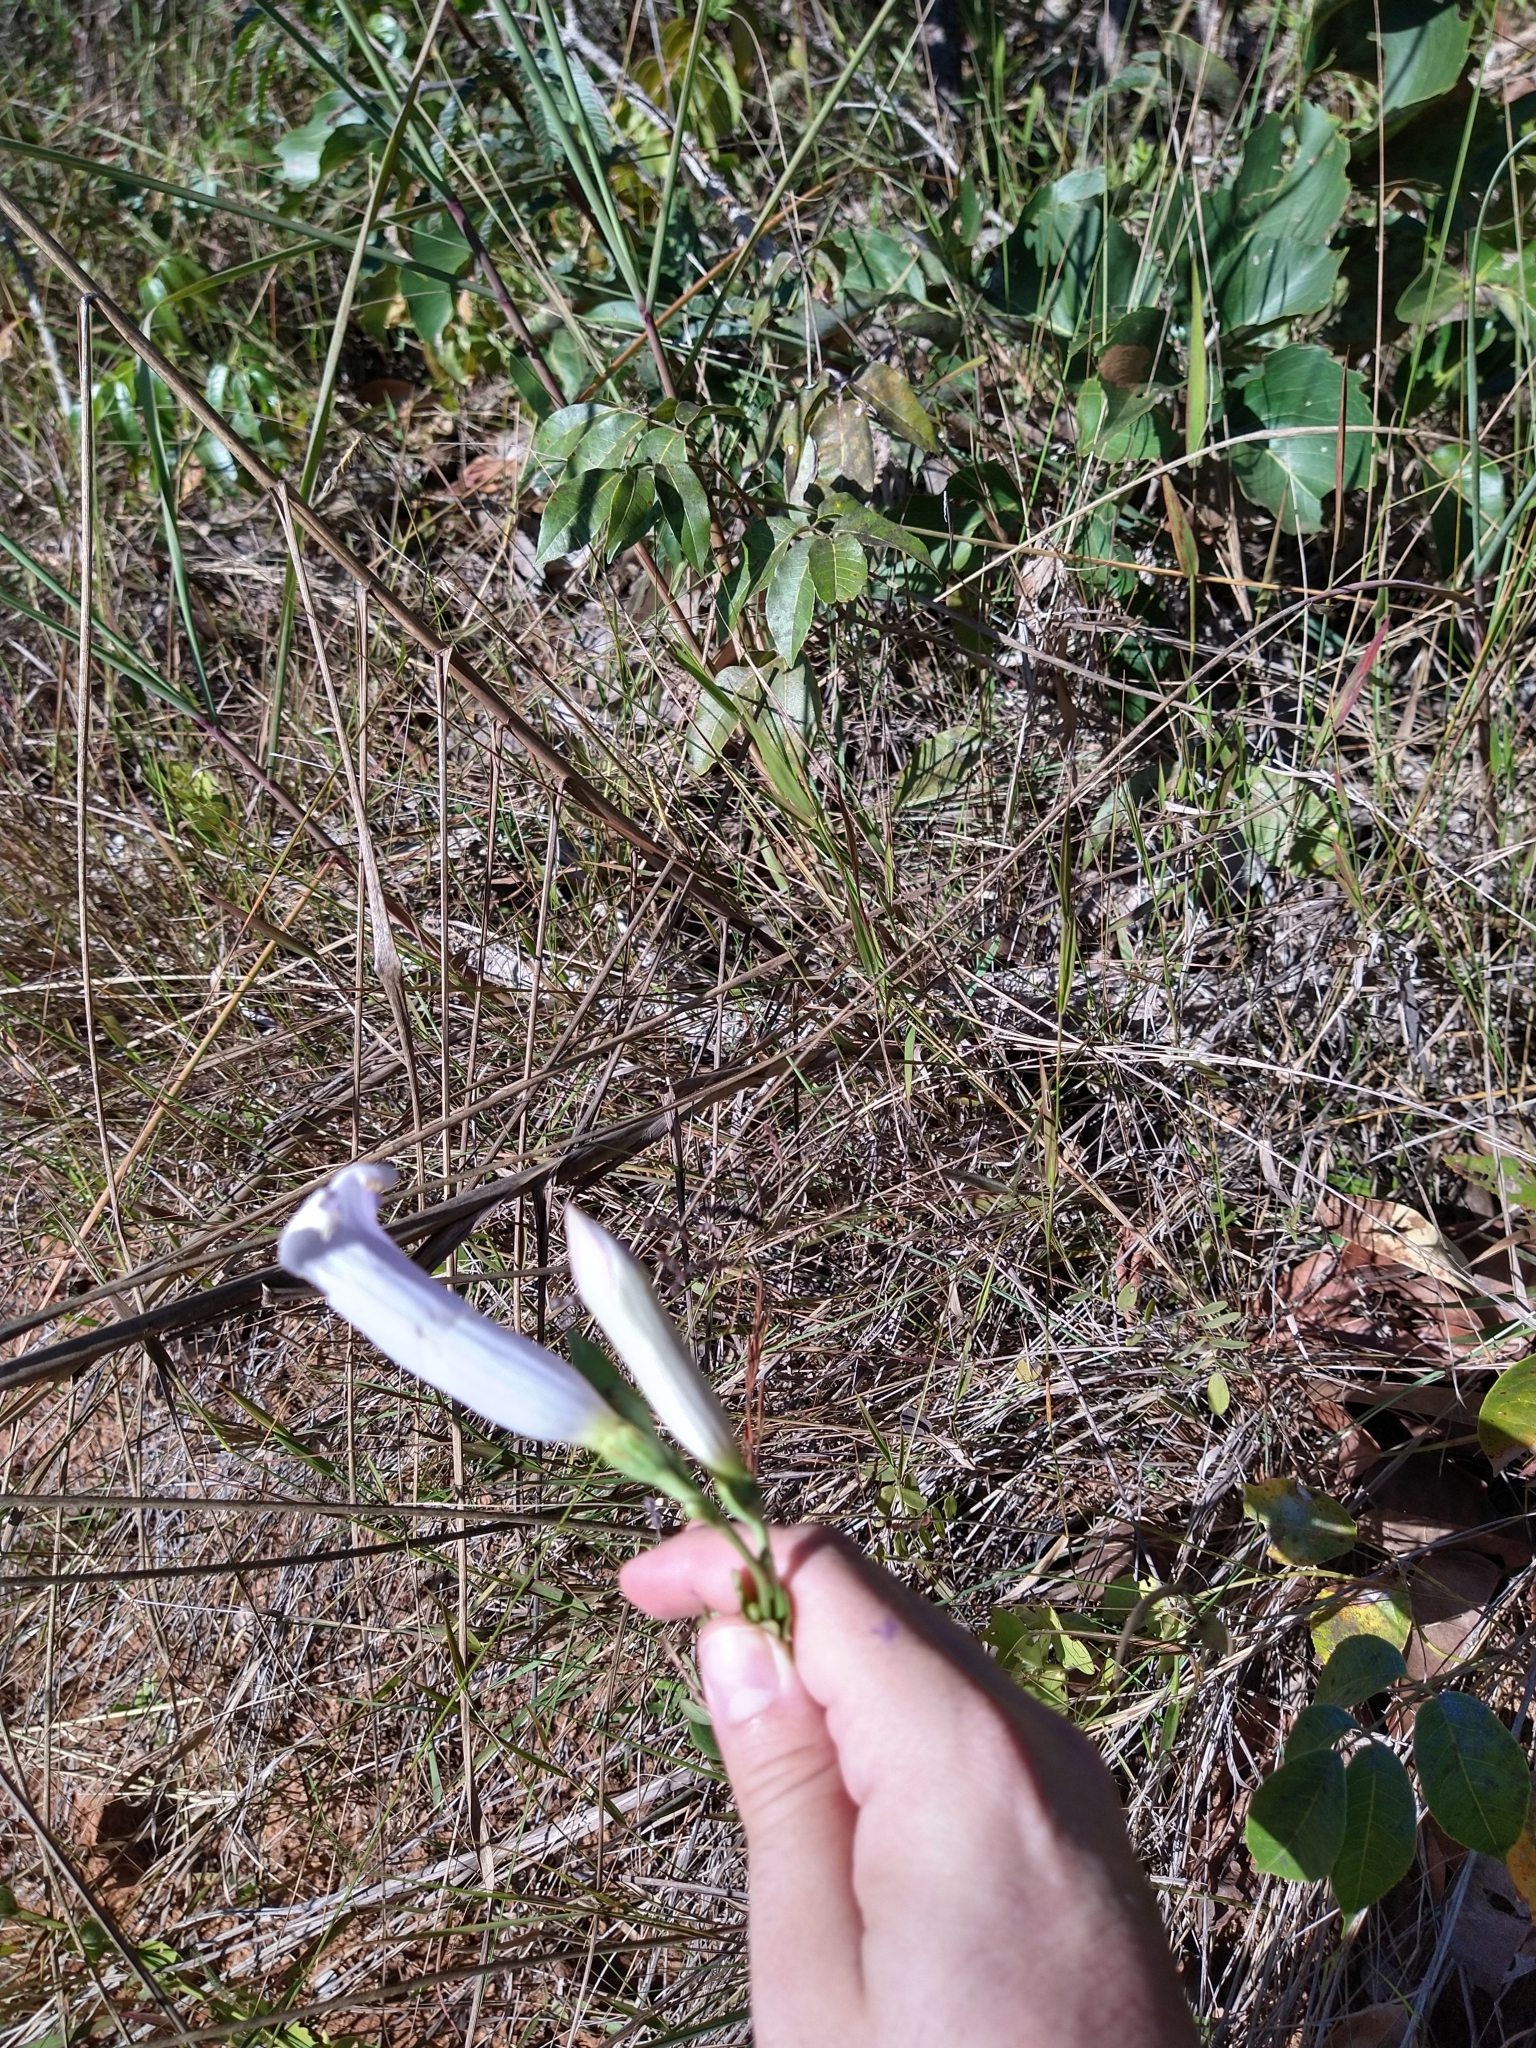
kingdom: Plantae
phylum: Tracheophyta
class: Magnoliopsida
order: Gentianales
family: Gentianaceae
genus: Calolisianthus
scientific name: Calolisianthus speciosus
